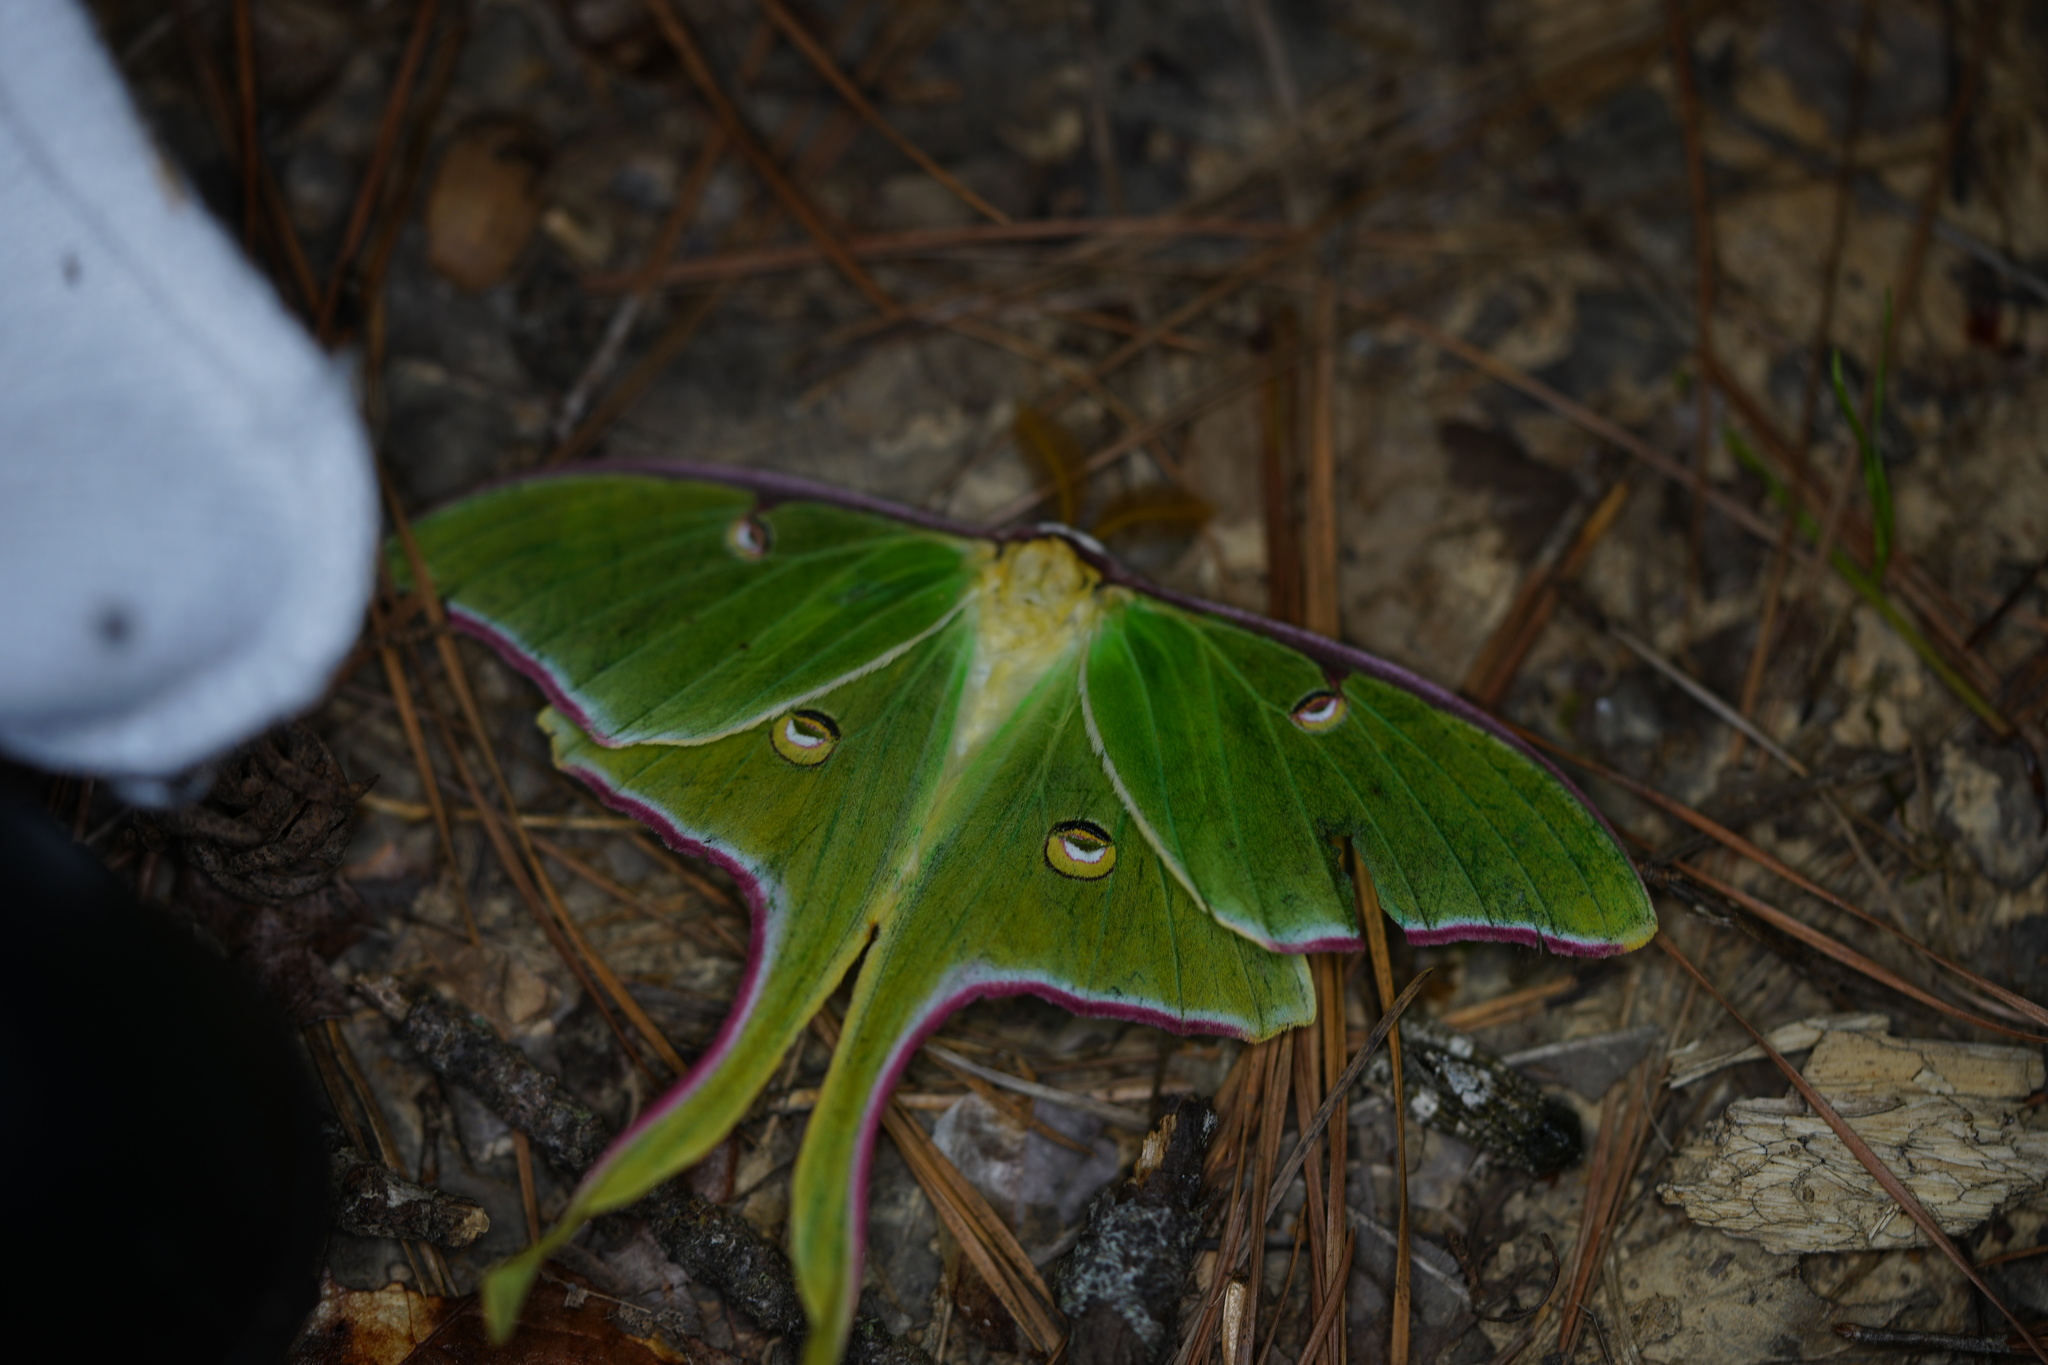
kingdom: Animalia
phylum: Arthropoda
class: Insecta
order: Lepidoptera
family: Saturniidae
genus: Actias
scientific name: Actias luna
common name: Luna moth
